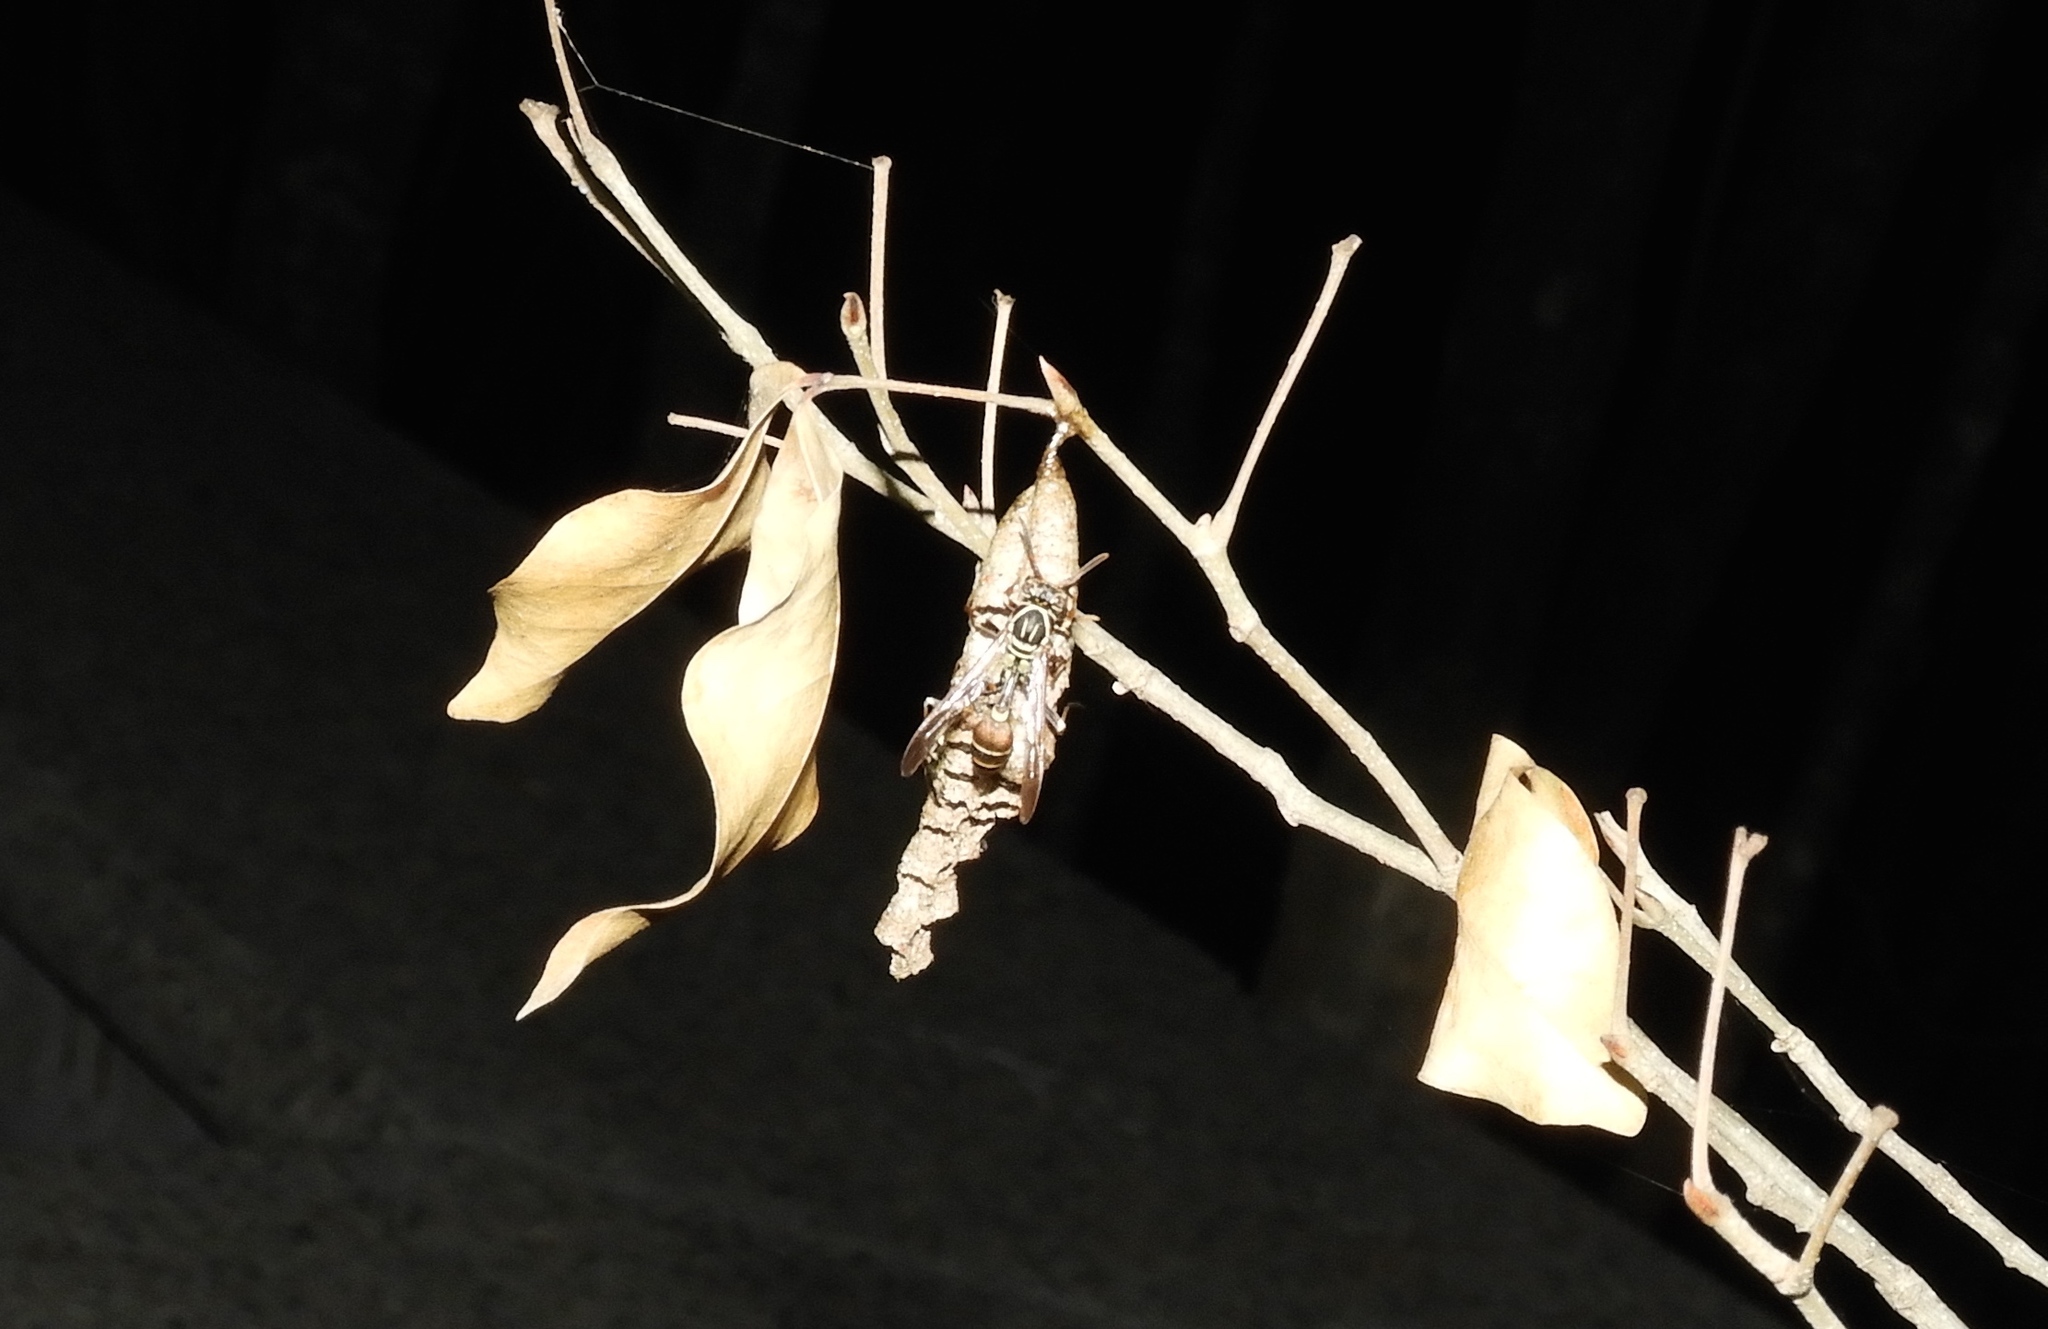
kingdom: Animalia
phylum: Arthropoda
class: Insecta
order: Hymenoptera
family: Vespidae
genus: Mischocyttarus
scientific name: Mischocyttarus
